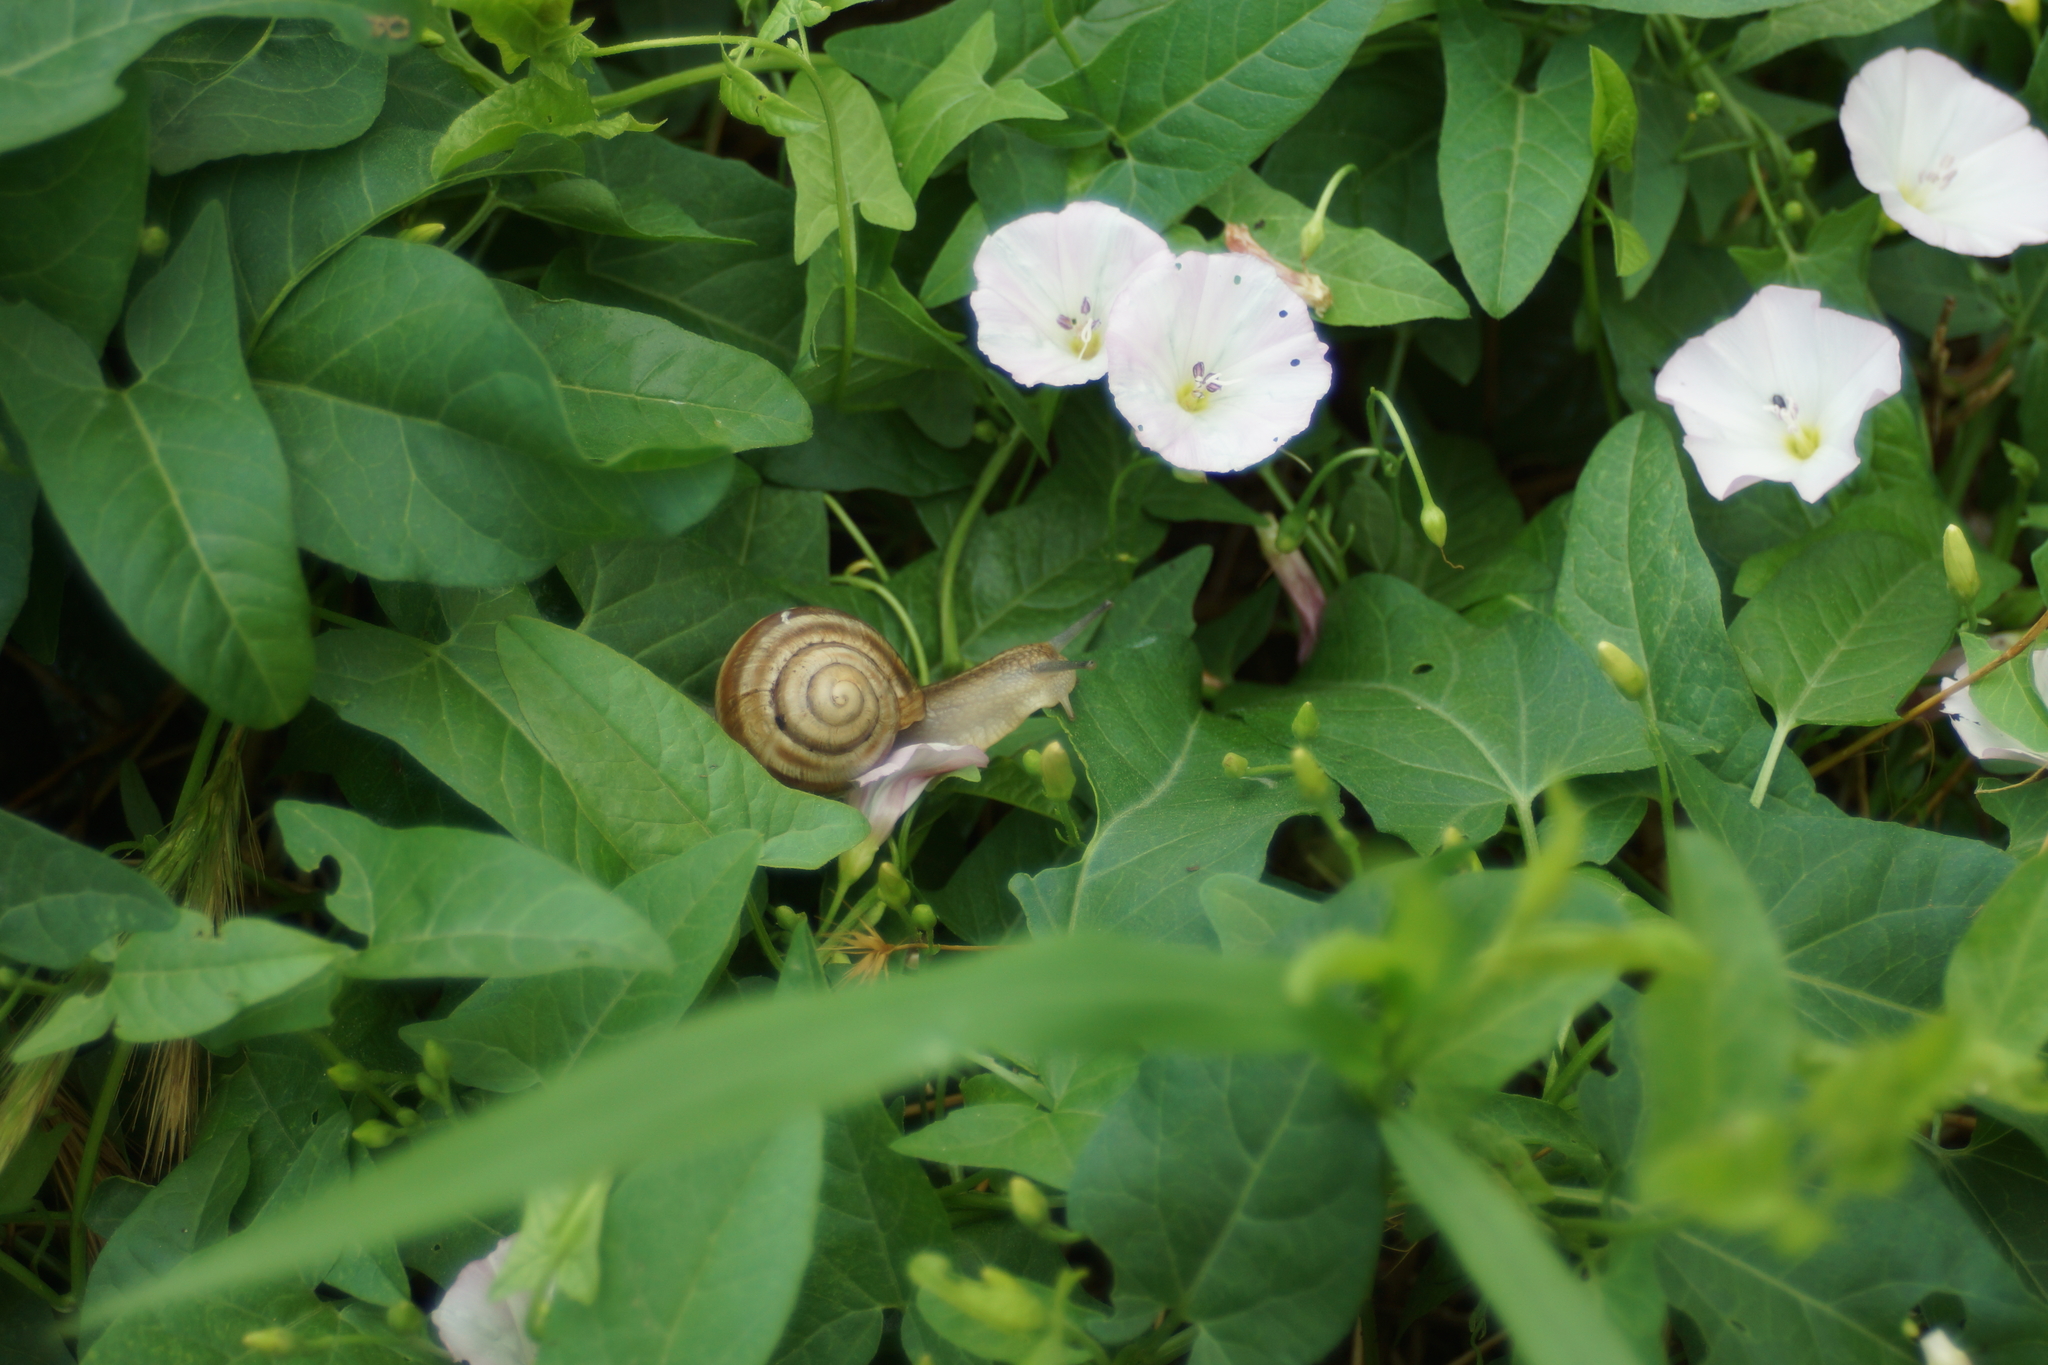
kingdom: Animalia
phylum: Mollusca
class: Gastropoda
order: Stylommatophora
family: Helicidae
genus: Helix
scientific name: Helix albescens
